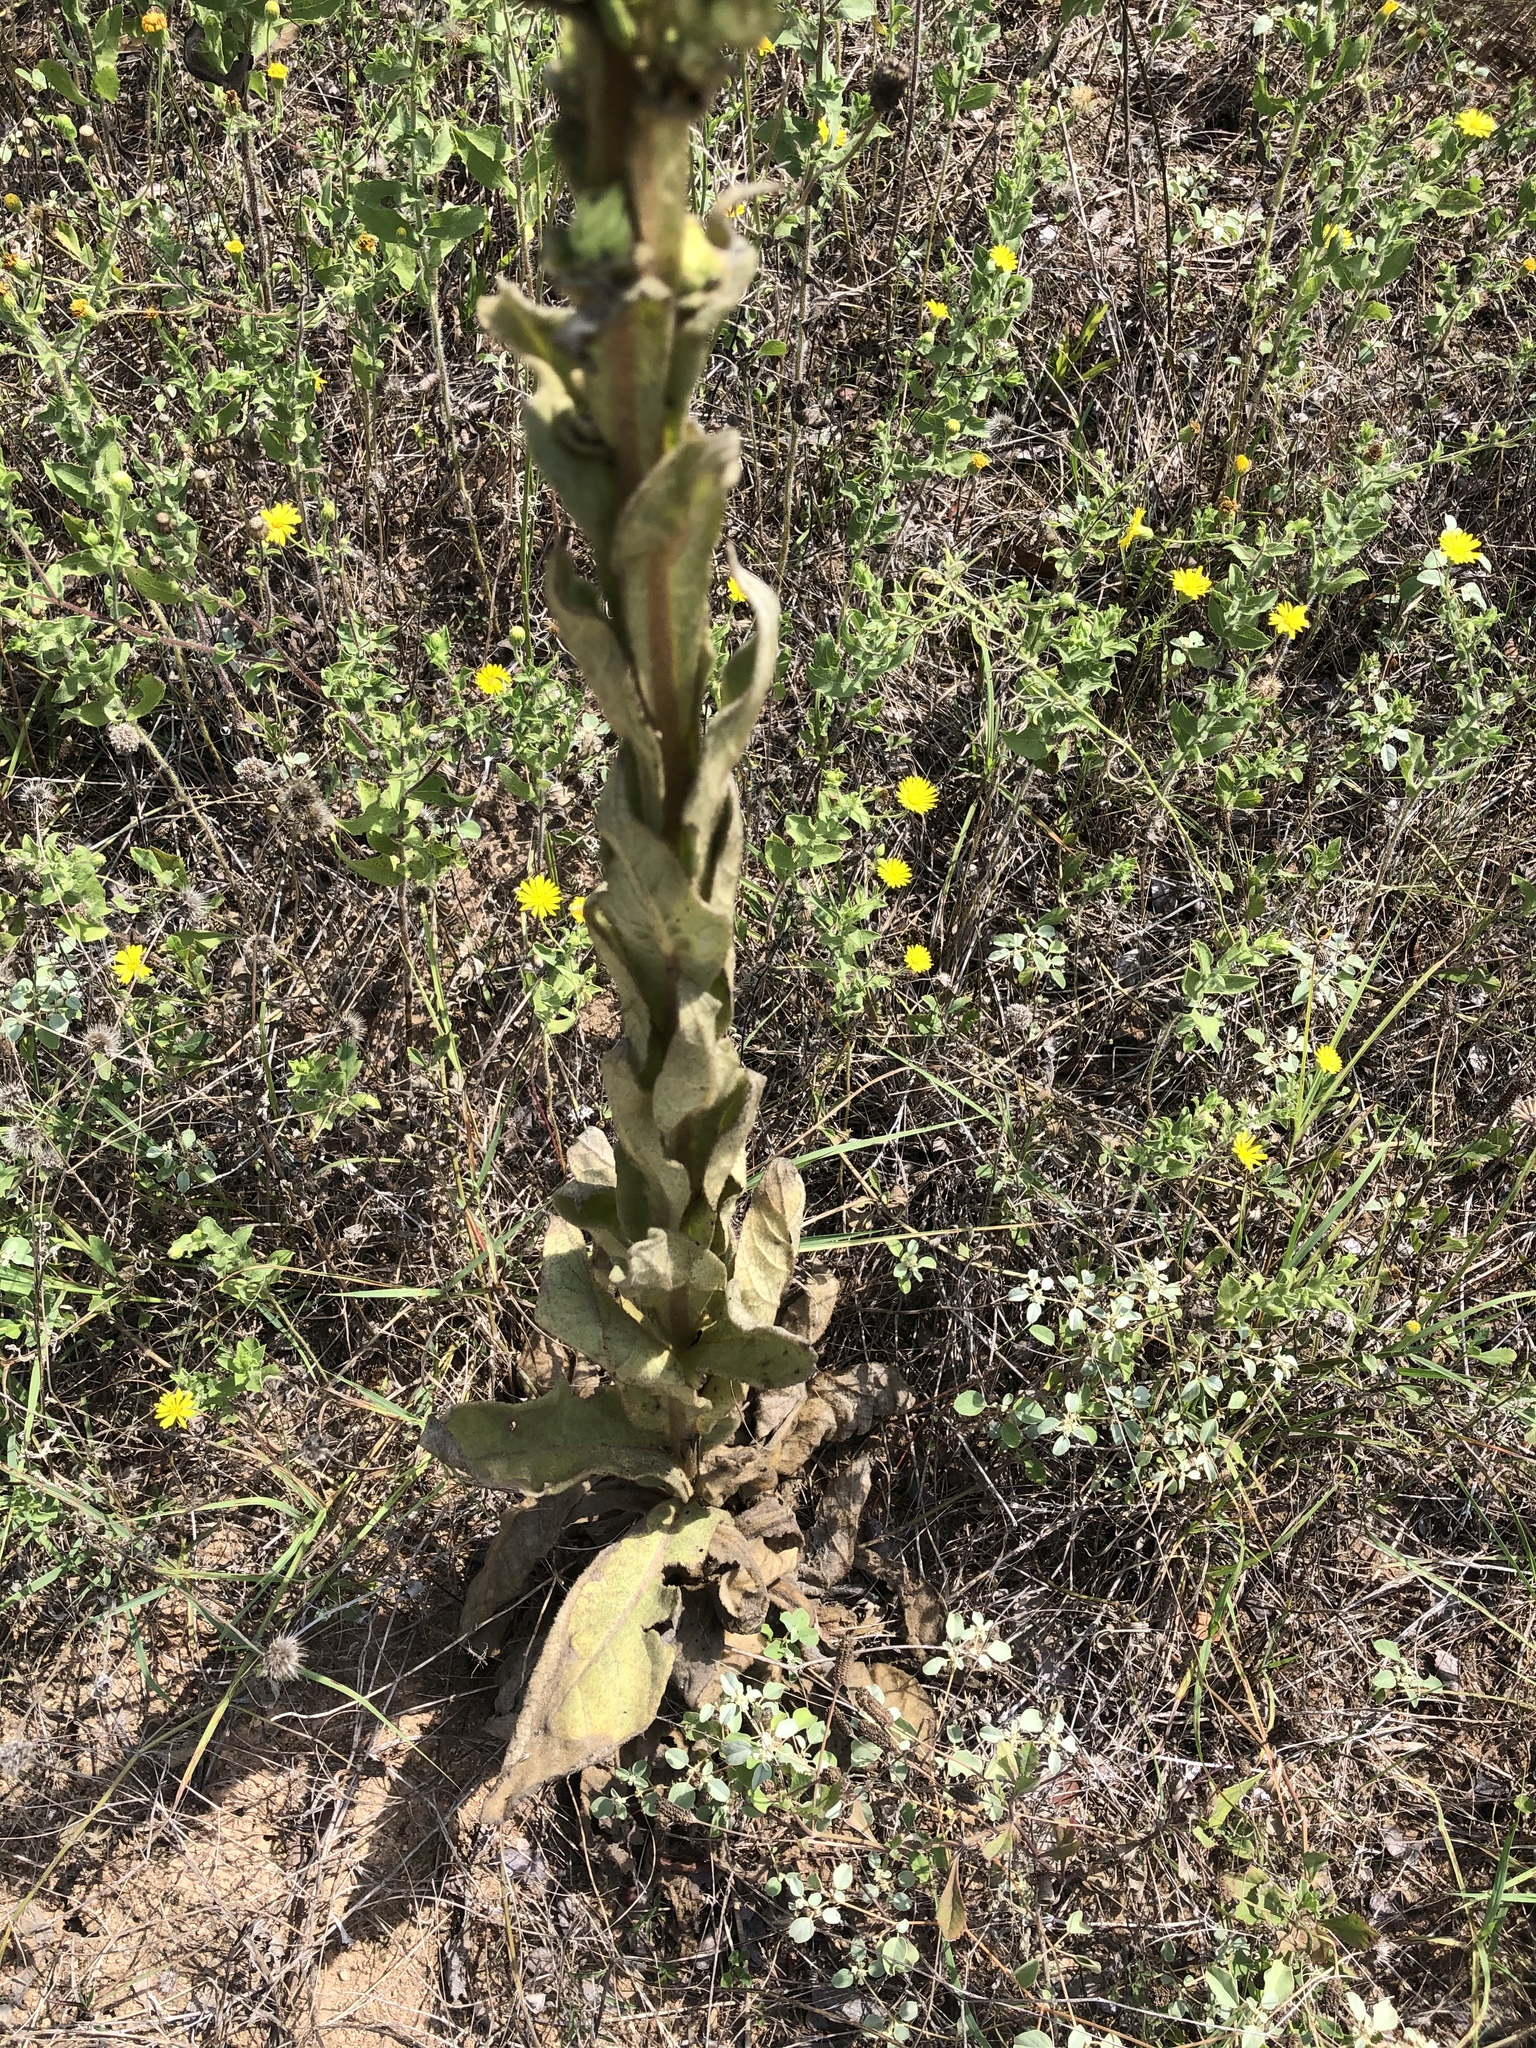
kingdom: Plantae
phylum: Tracheophyta
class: Magnoliopsida
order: Lamiales
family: Scrophulariaceae
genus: Verbascum
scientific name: Verbascum thapsus
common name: Common mullein
